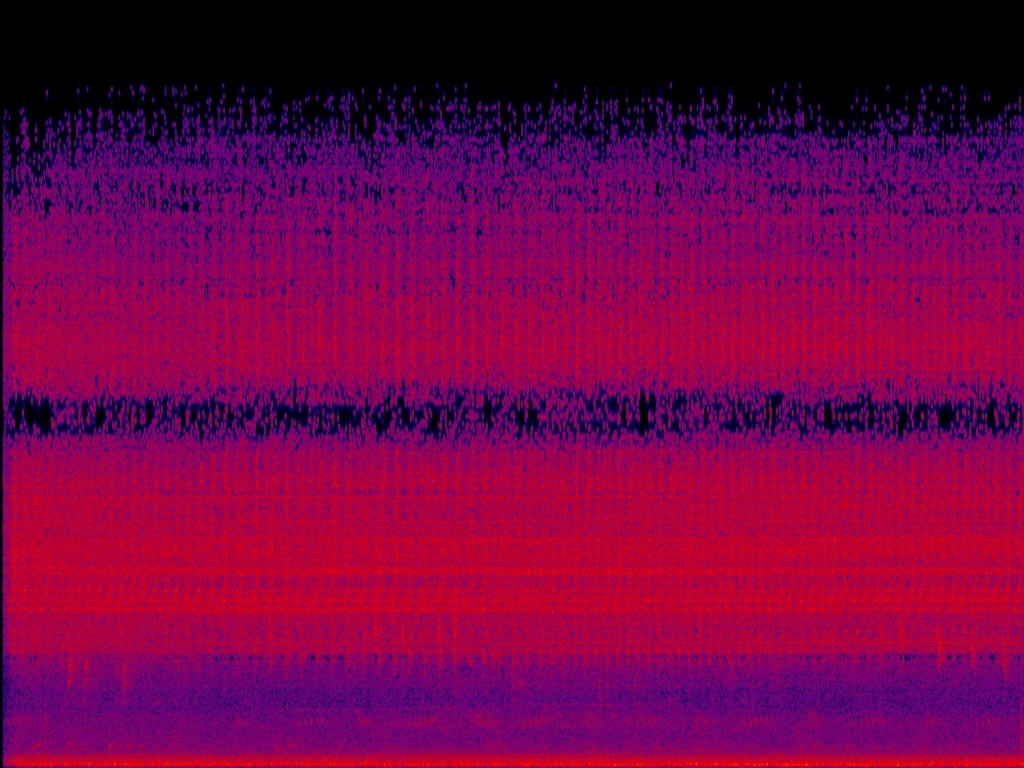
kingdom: Animalia
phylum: Arthropoda
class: Insecta
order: Hemiptera
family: Cicadidae
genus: Cryptotympana
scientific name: Cryptotympana takasagona
